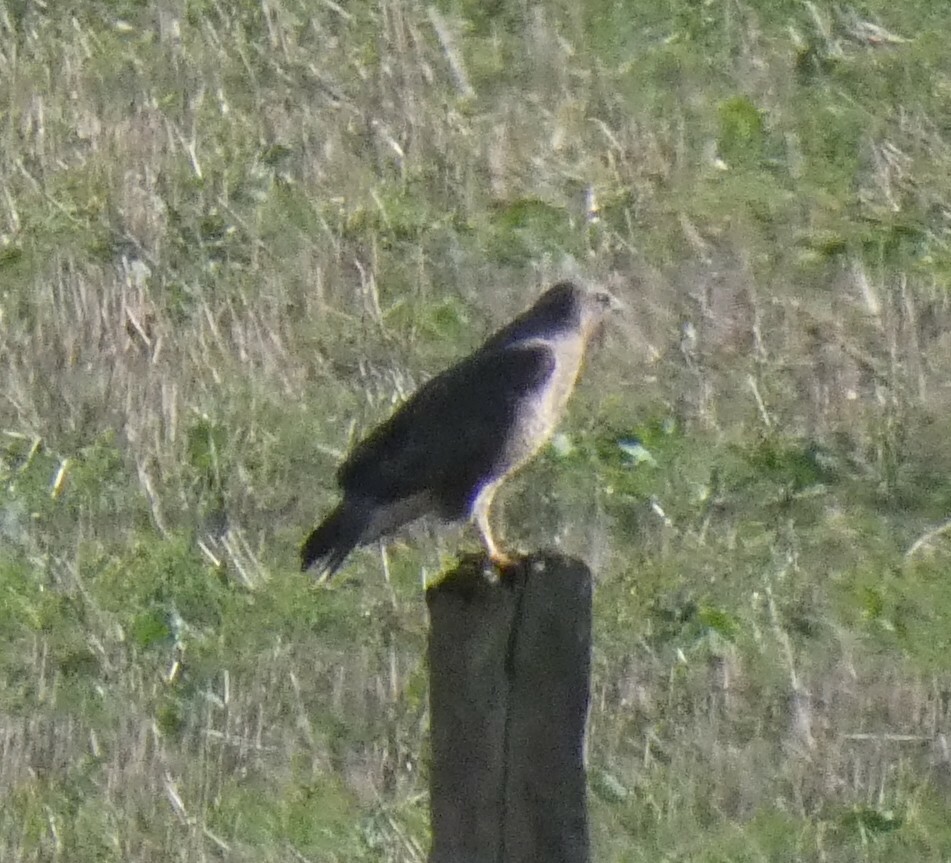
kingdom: Animalia
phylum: Chordata
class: Aves
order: Accipitriformes
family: Accipitridae
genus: Buteo
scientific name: Buteo buteo
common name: Common buzzard
